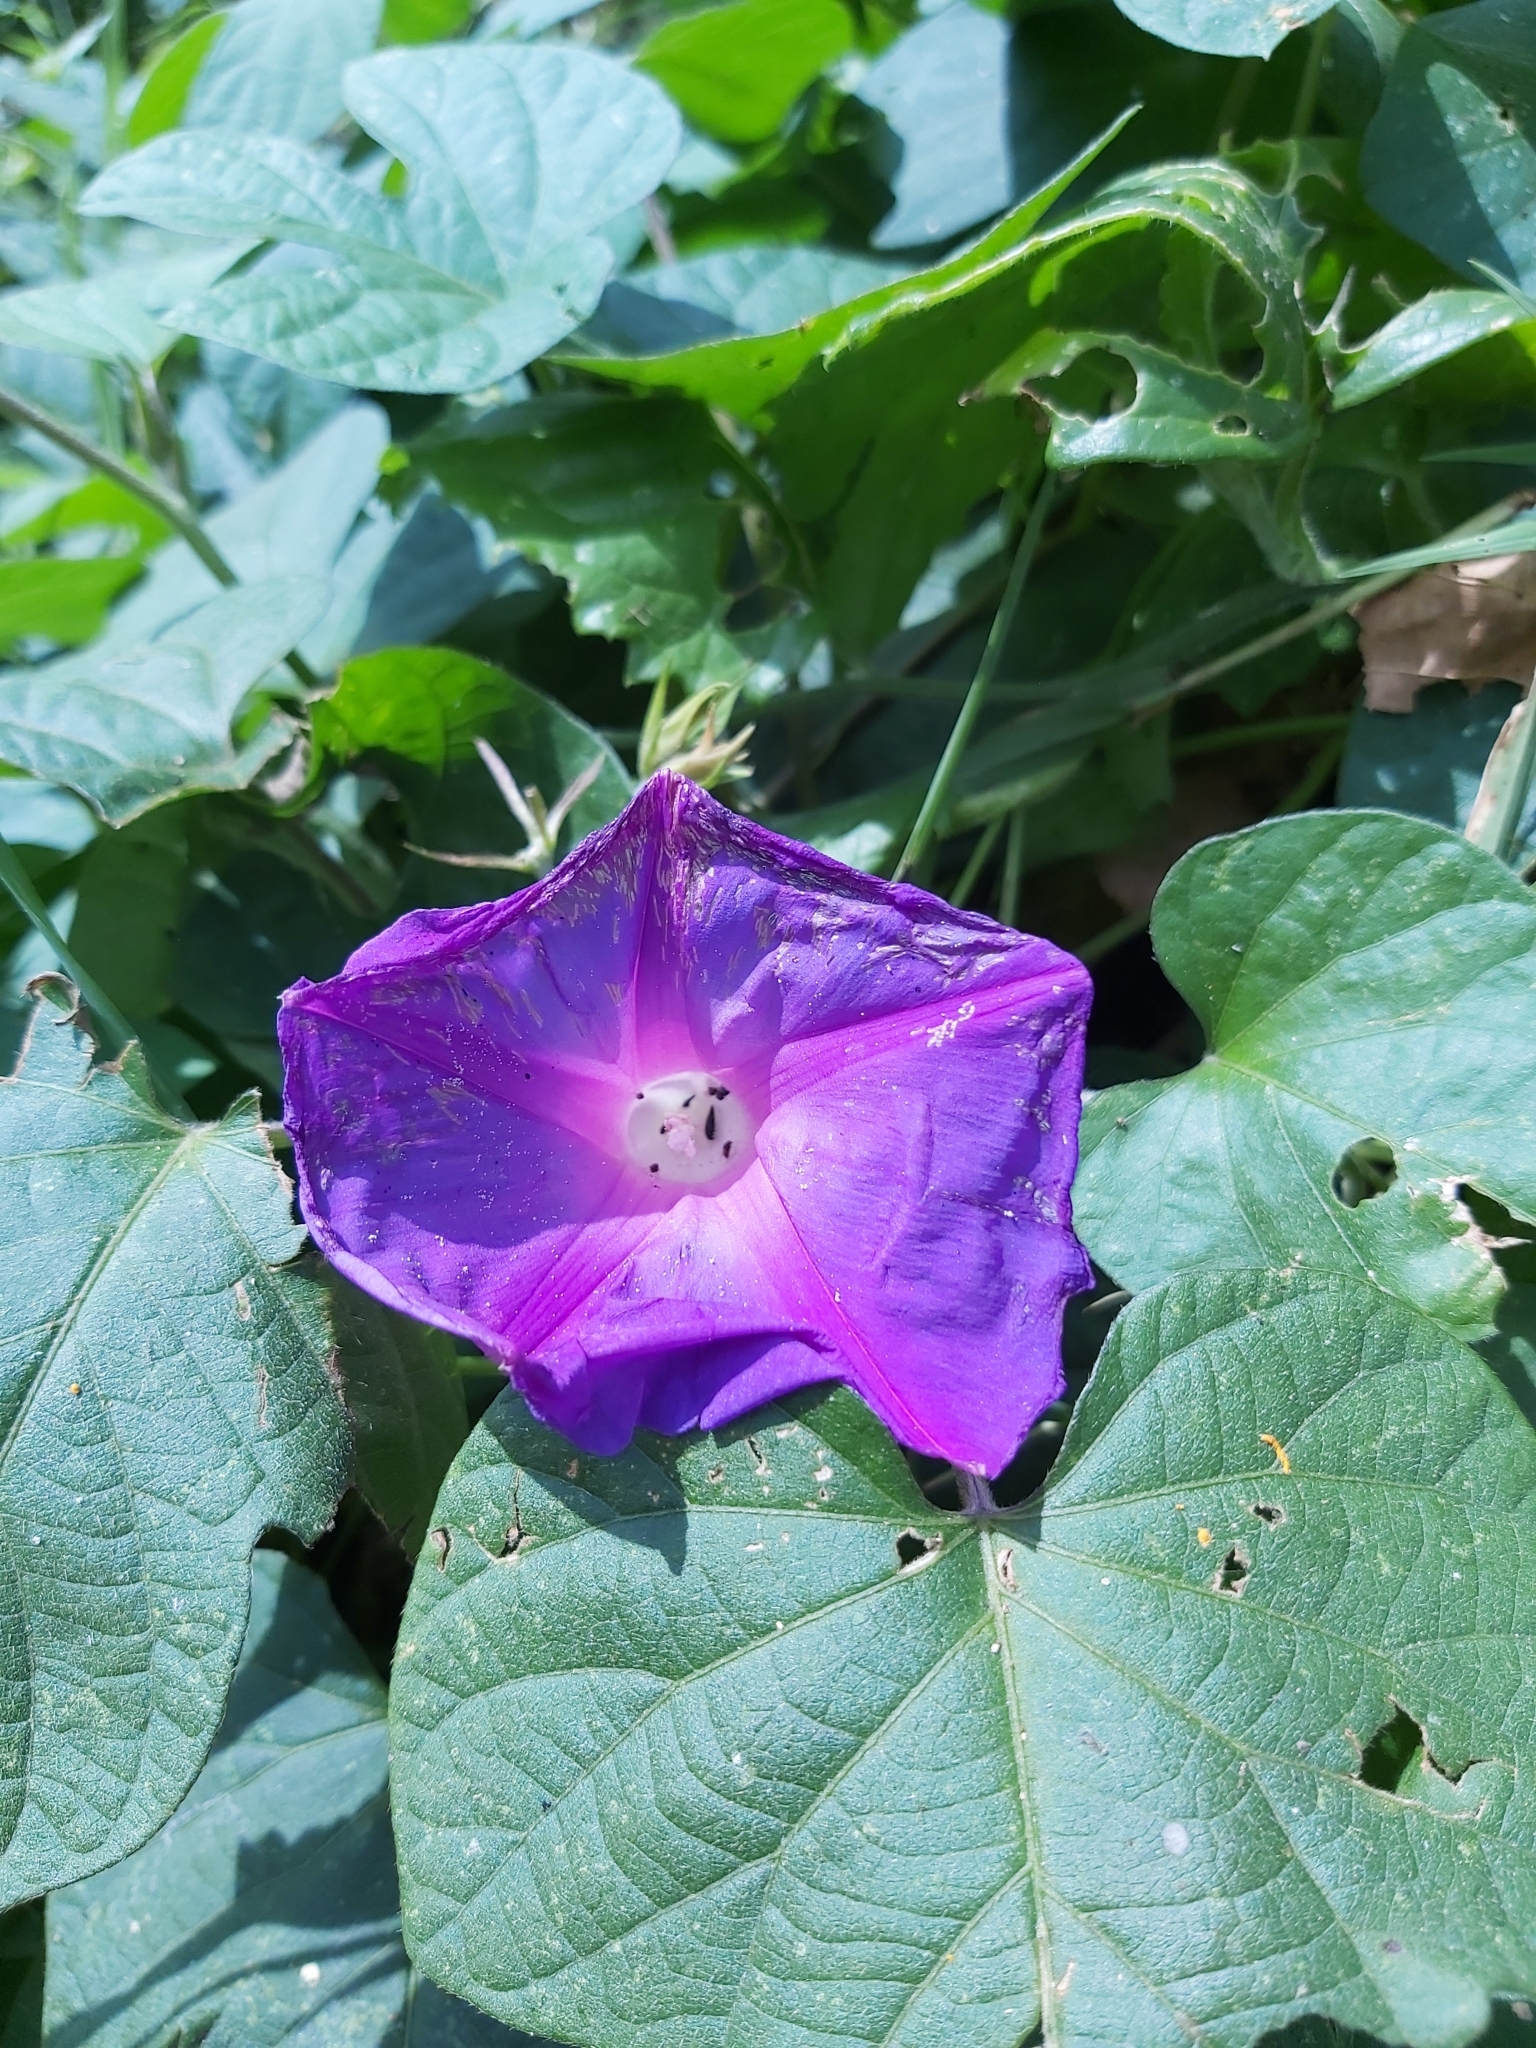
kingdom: Plantae
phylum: Tracheophyta
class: Magnoliopsida
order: Solanales
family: Convolvulaceae
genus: Ipomoea
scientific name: Ipomoea indica
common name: Blue dawnflower
